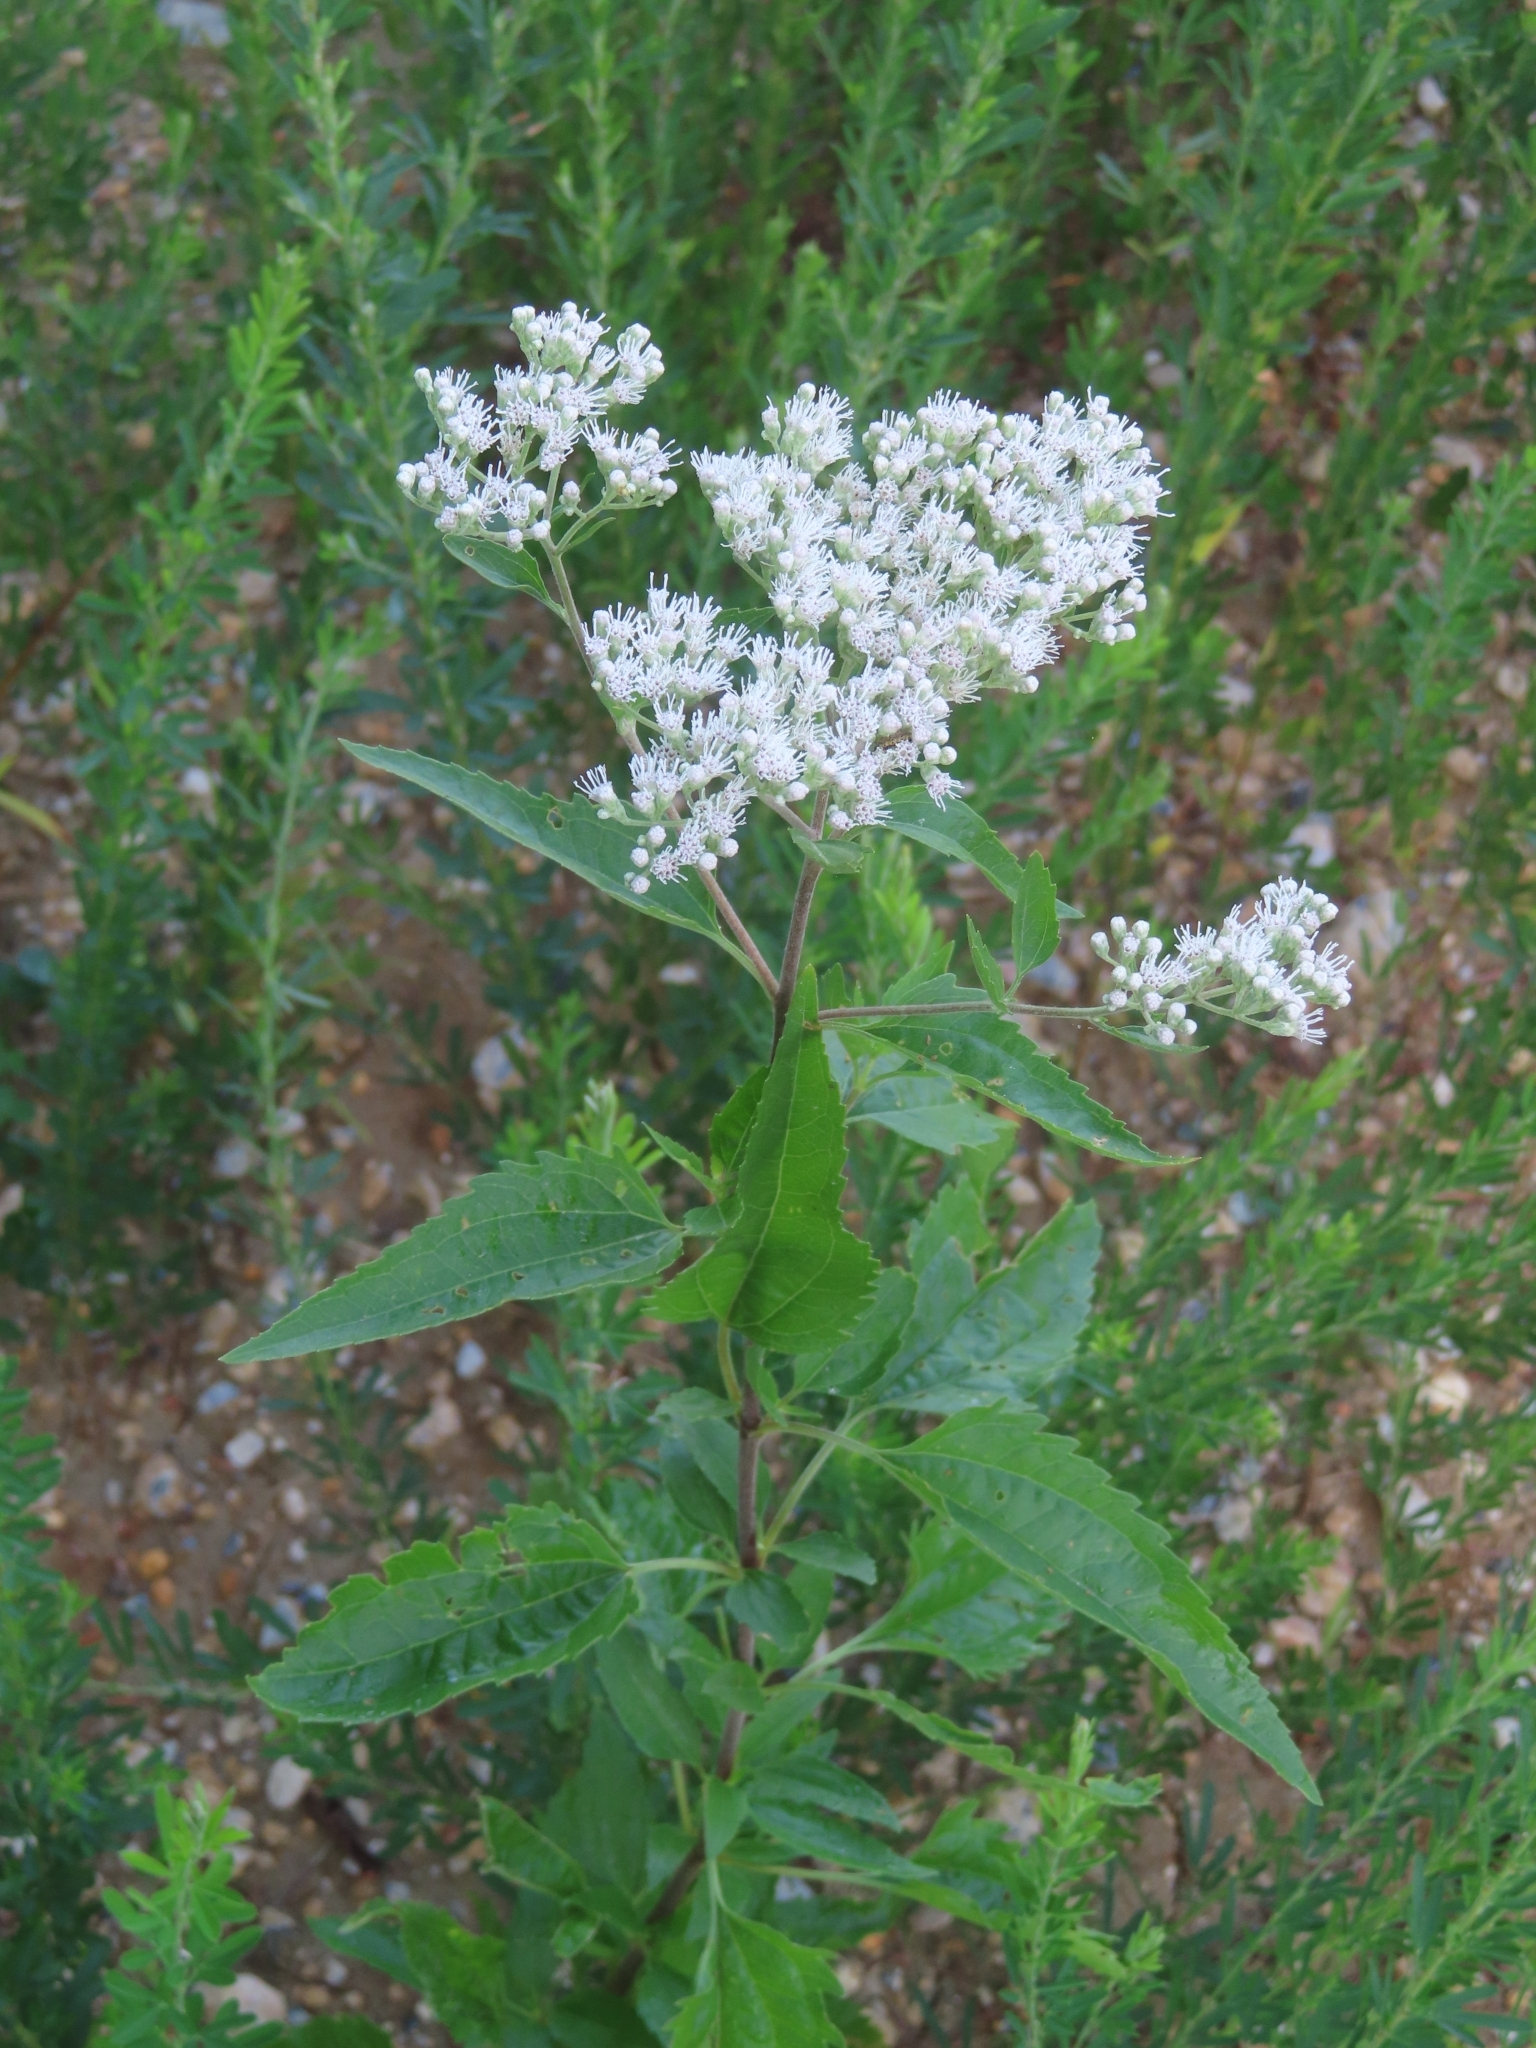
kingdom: Plantae
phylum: Tracheophyta
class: Magnoliopsida
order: Asterales
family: Asteraceae
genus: Eupatorium
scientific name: Eupatorium serotinum
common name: Late boneset
